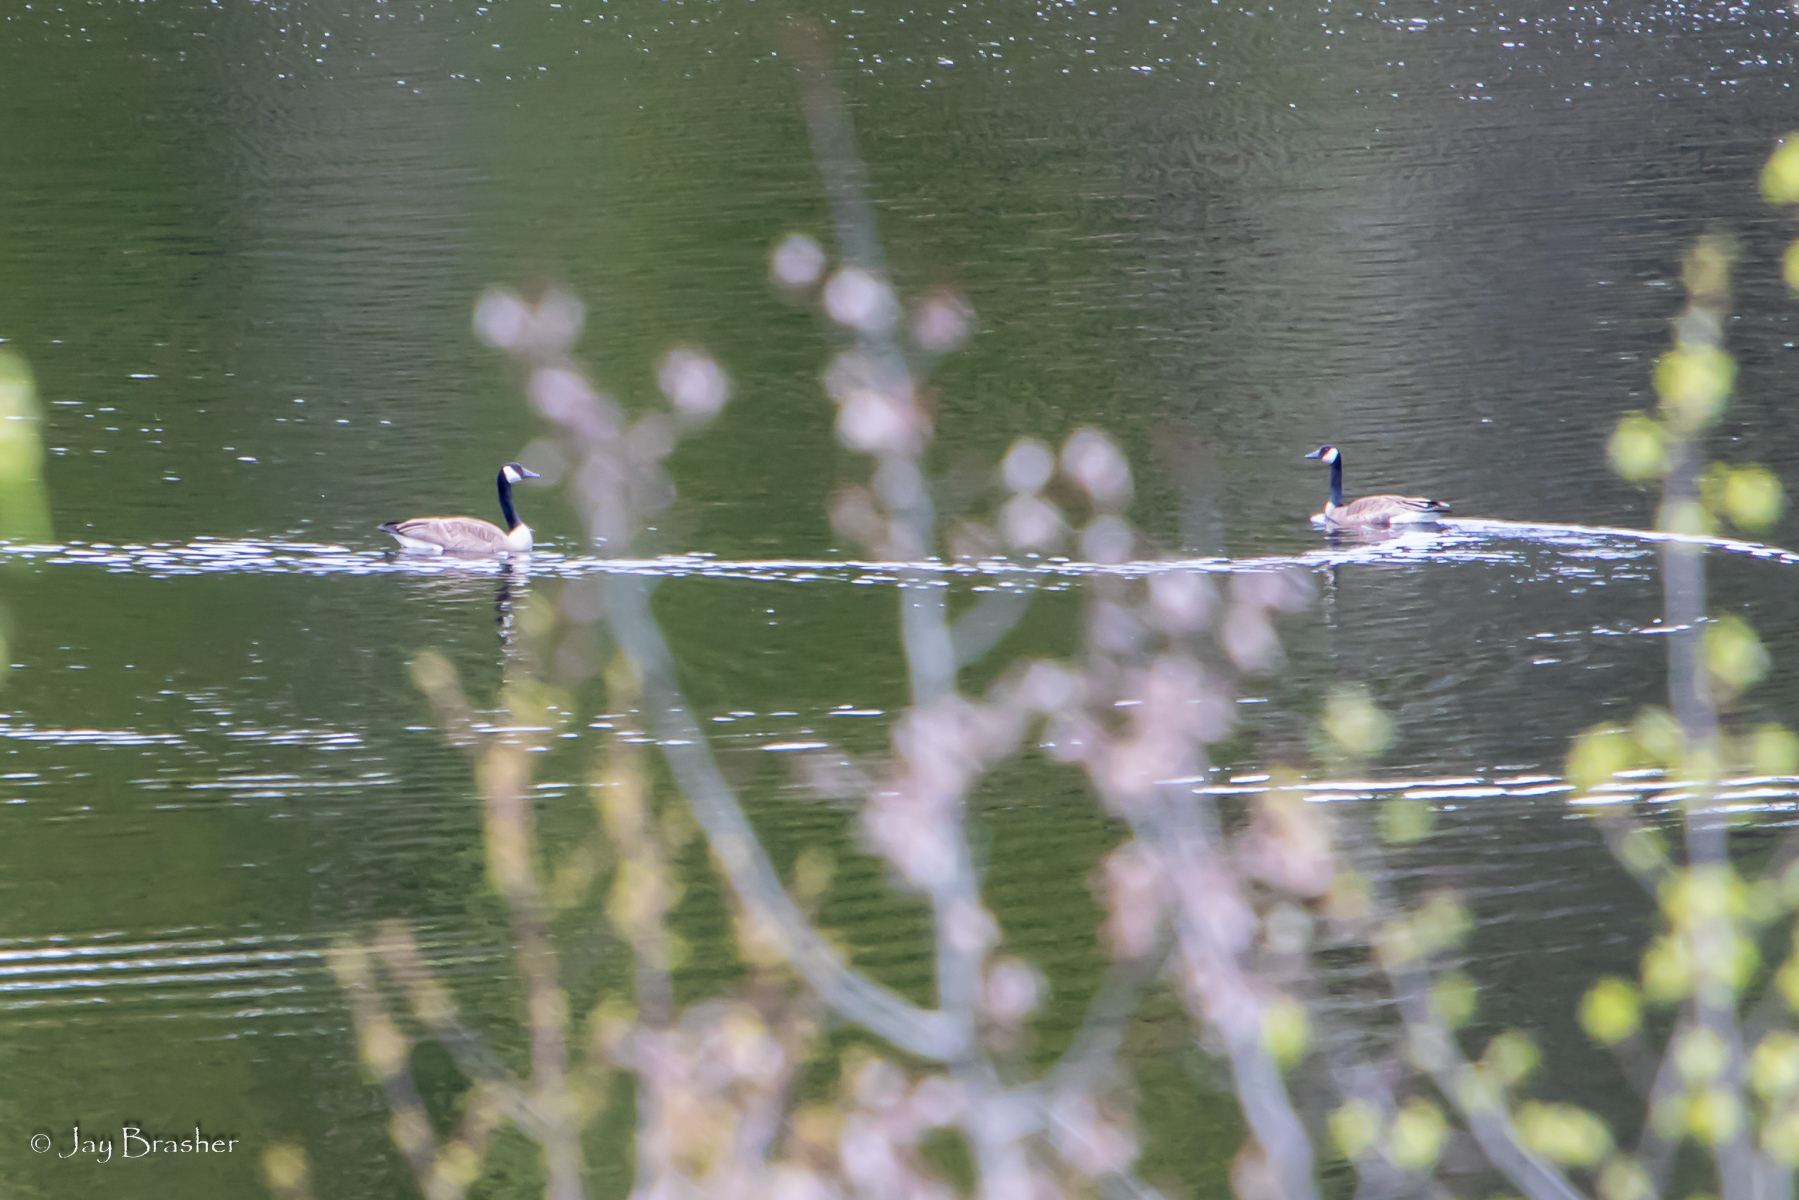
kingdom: Animalia
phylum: Chordata
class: Aves
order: Anseriformes
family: Anatidae
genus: Branta
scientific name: Branta canadensis
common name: Canada goose
